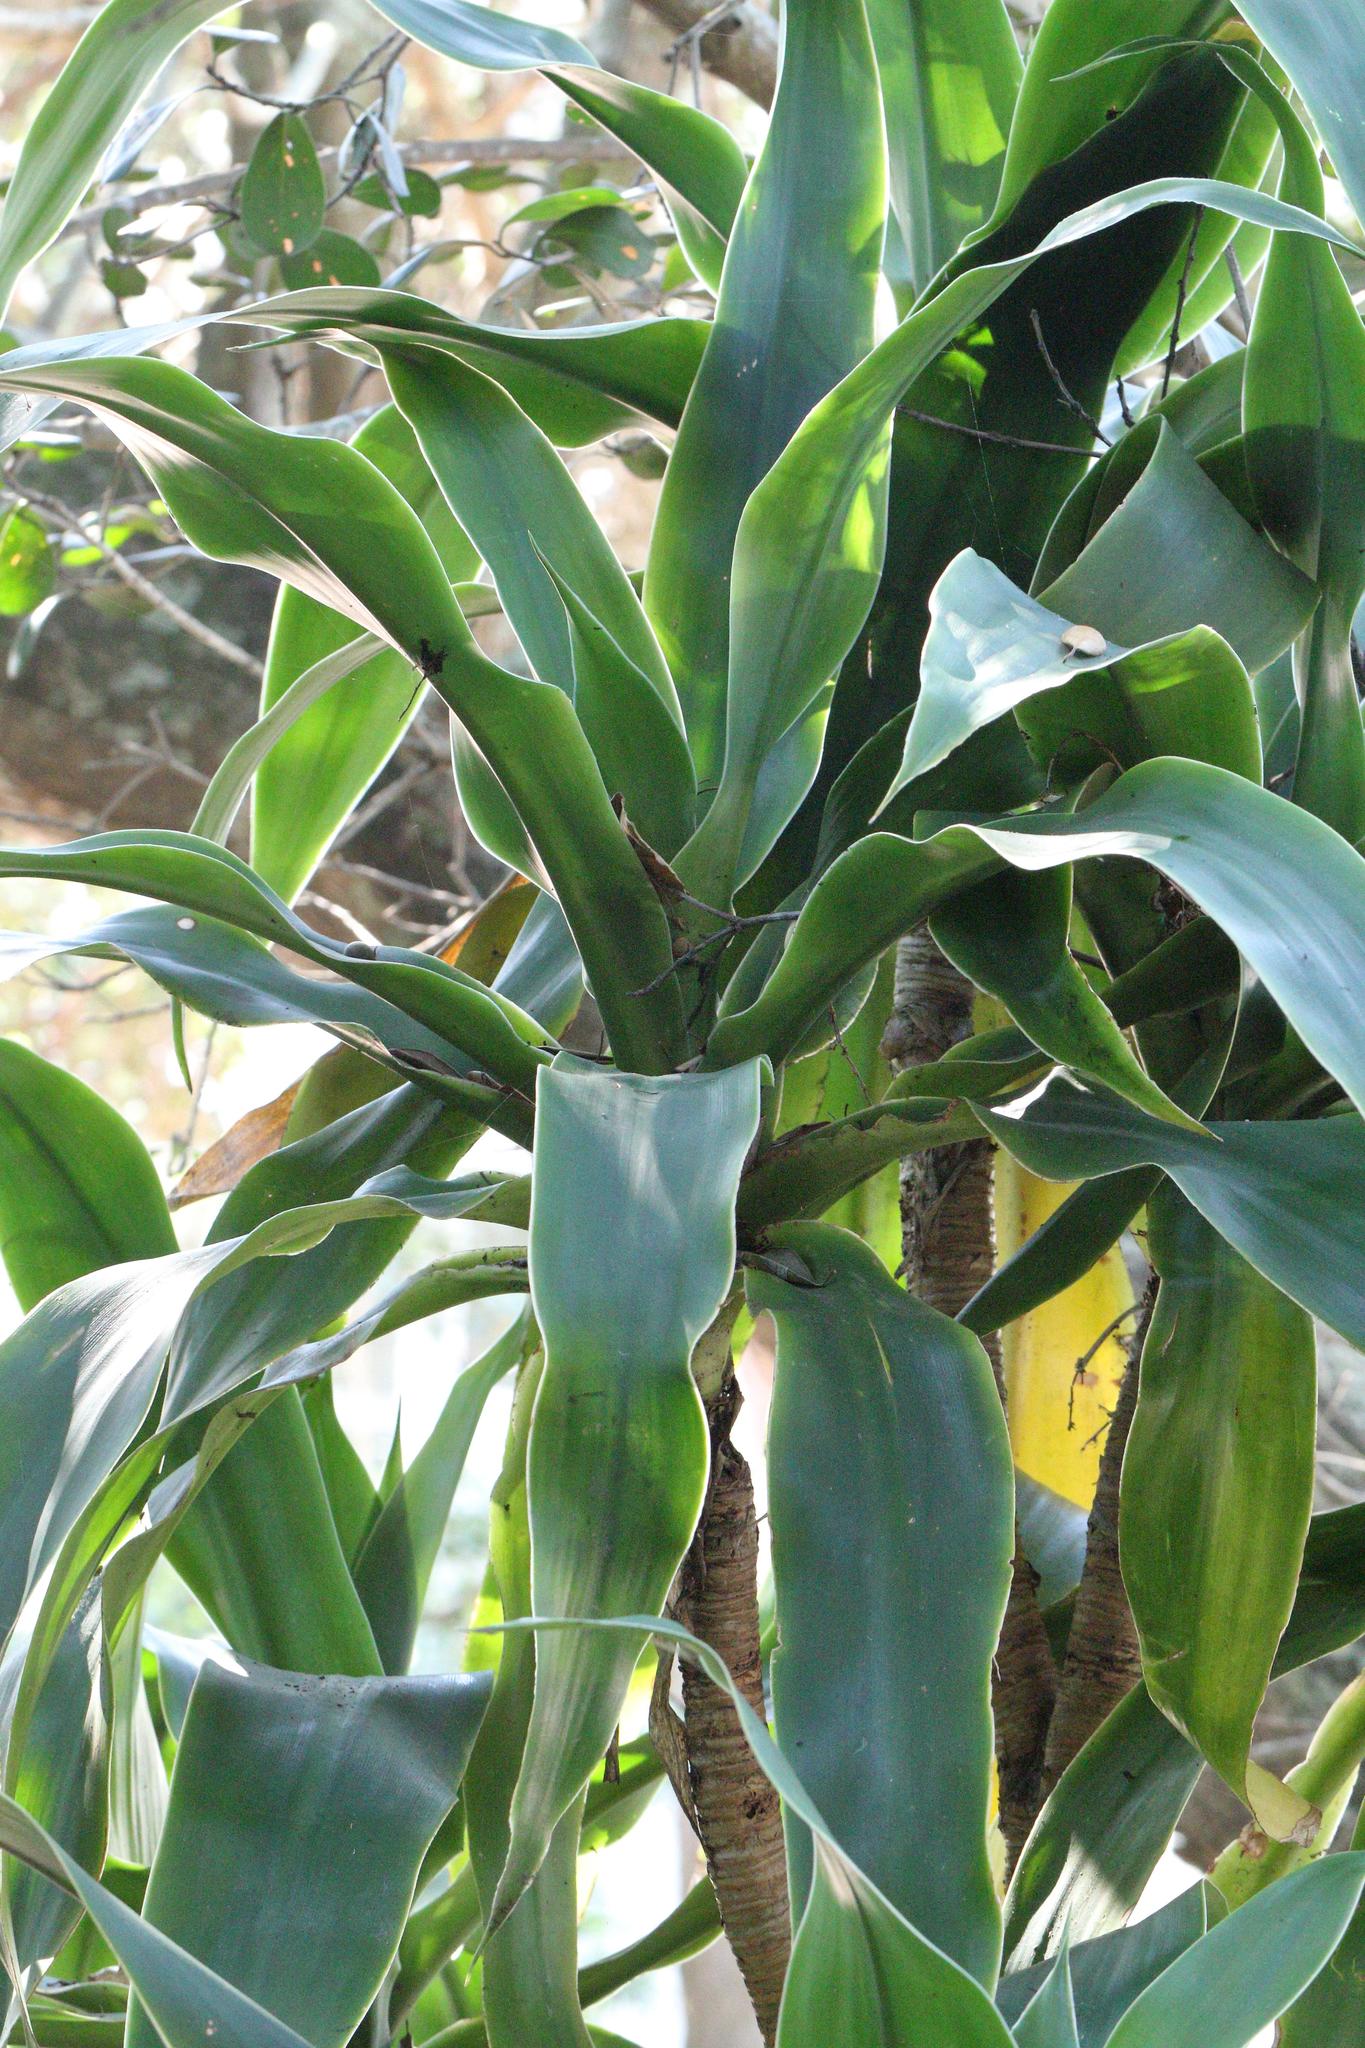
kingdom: Plantae
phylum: Tracheophyta
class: Liliopsida
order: Asparagales
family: Asparagaceae
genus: Dracaena
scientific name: Dracaena aletriformis
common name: Large-leaved dragon tree
